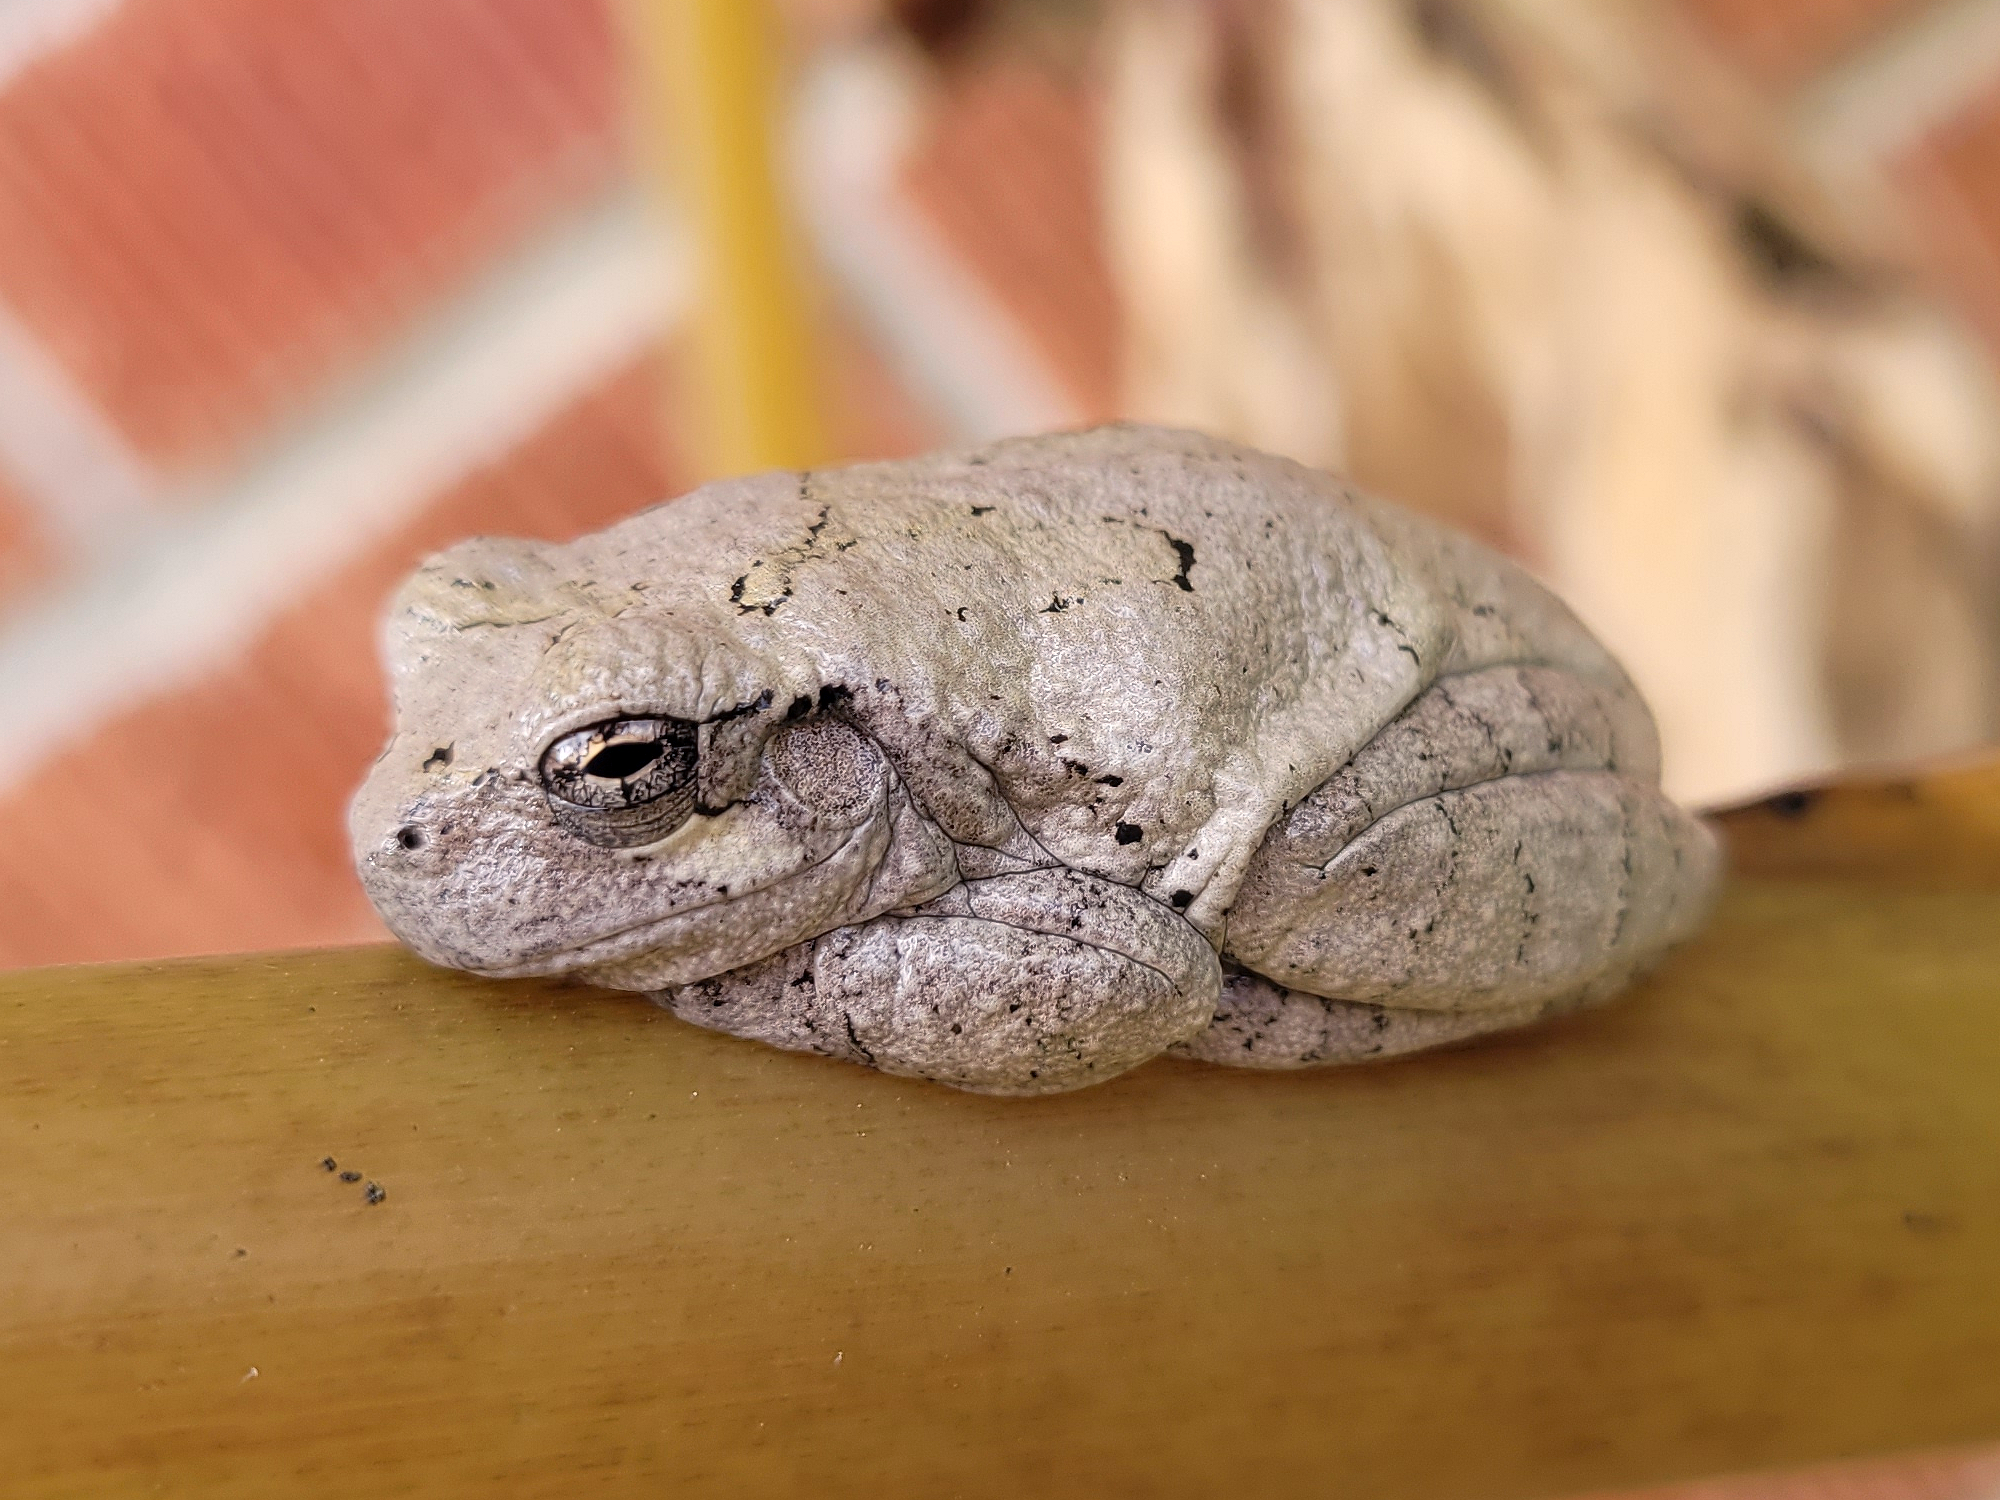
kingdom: Animalia
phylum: Chordata
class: Amphibia
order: Anura
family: Hylidae
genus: Dryophytes
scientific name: Dryophytes chrysoscelis
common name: Cope's gray treefrog
